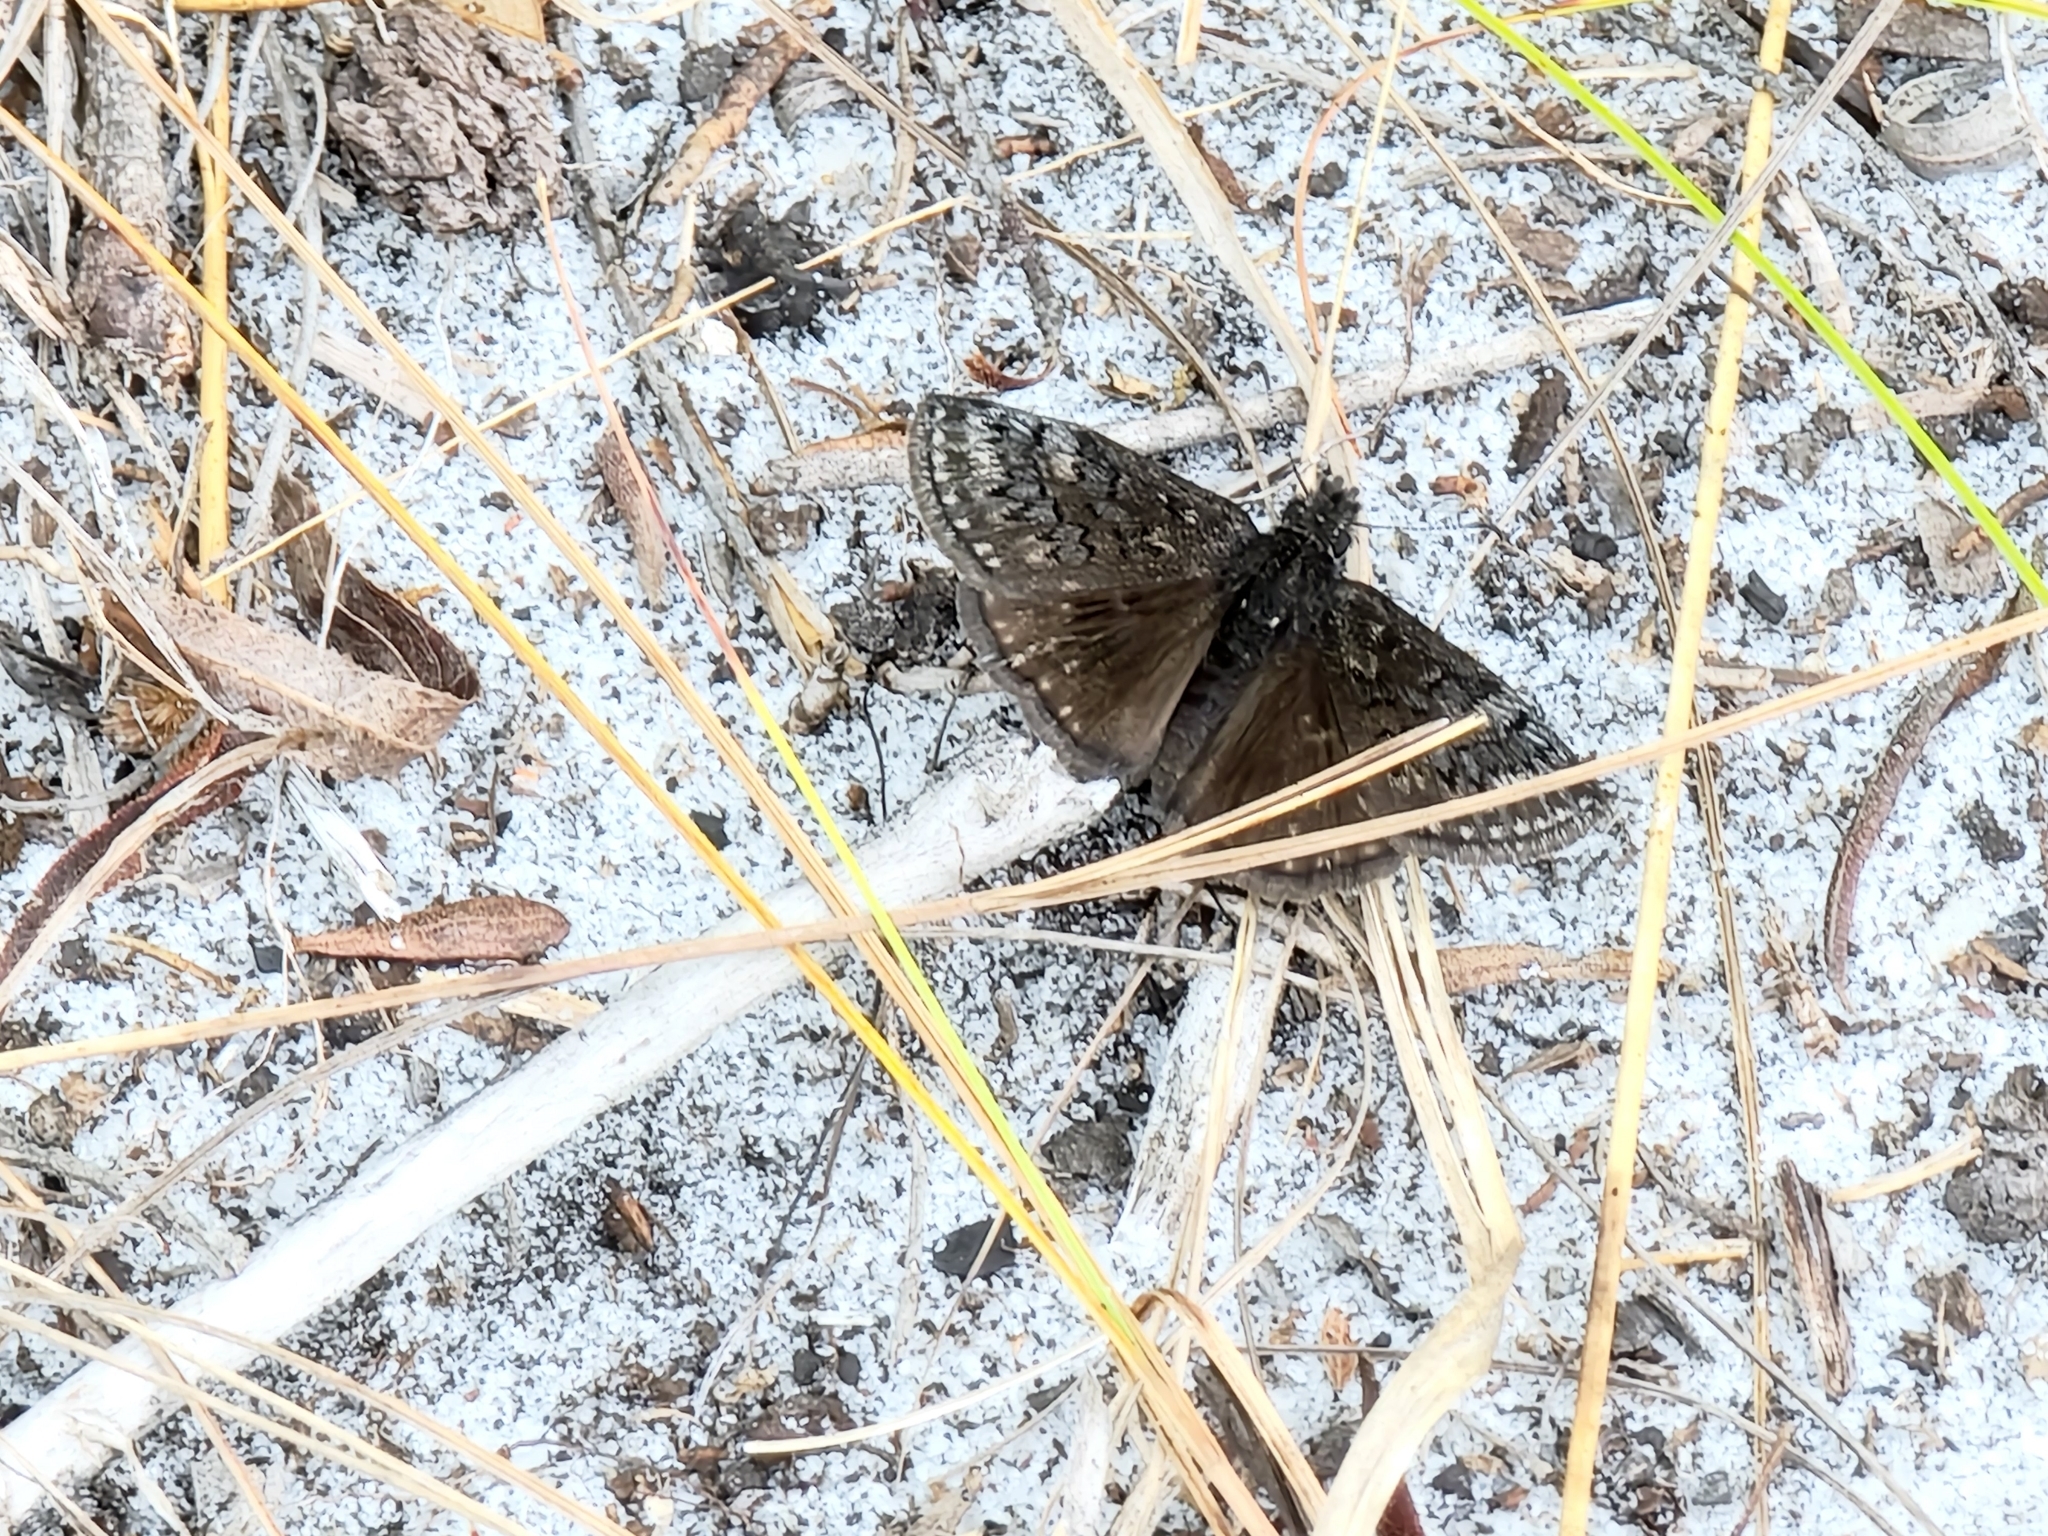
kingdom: Animalia
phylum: Arthropoda
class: Insecta
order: Lepidoptera
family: Hesperiidae
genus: Erynnis
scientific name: Erynnis brizo
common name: Sleepy duskywing
